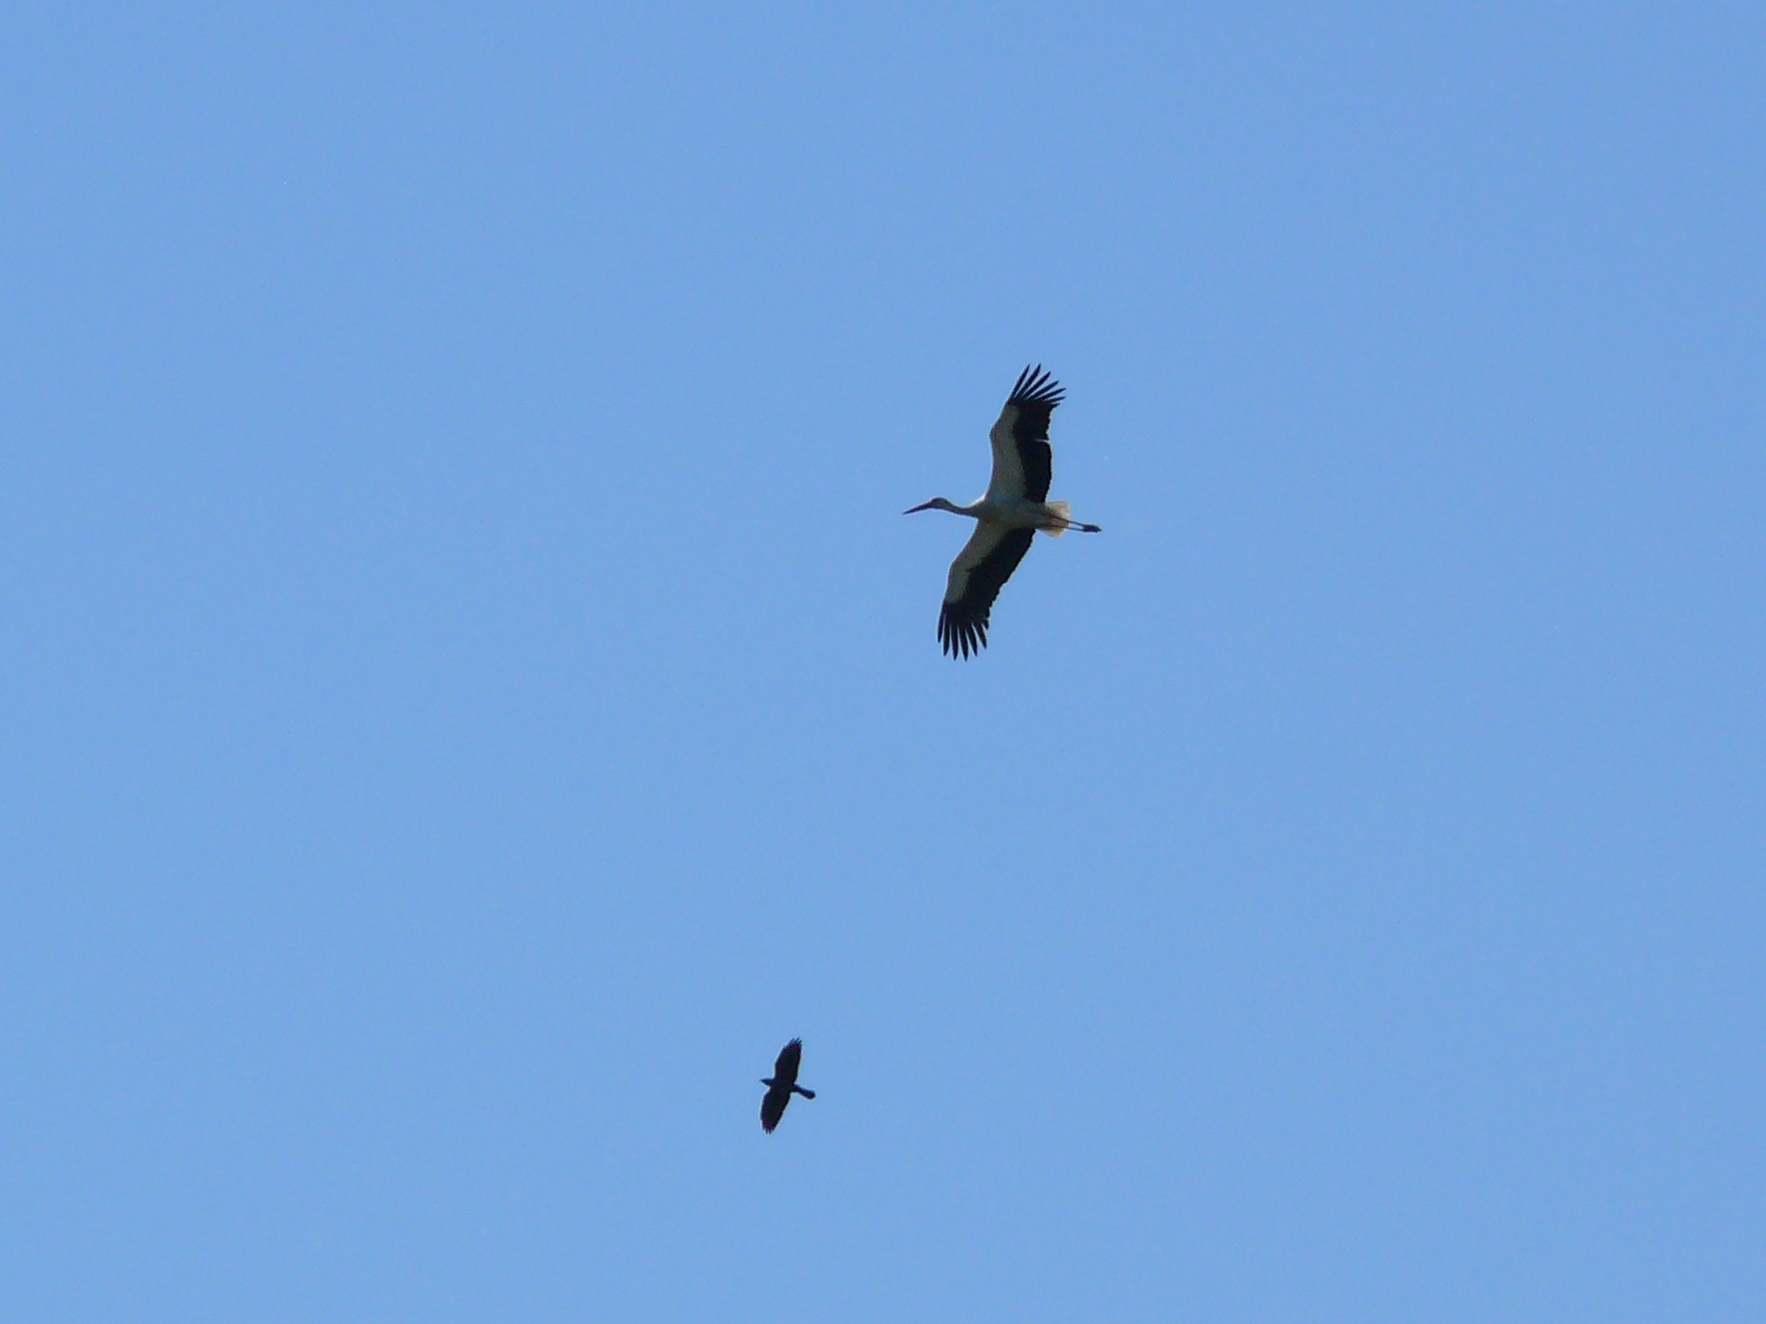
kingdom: Animalia
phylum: Chordata
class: Aves
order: Ciconiiformes
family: Ciconiidae
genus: Ciconia
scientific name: Ciconia ciconia
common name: White stork
